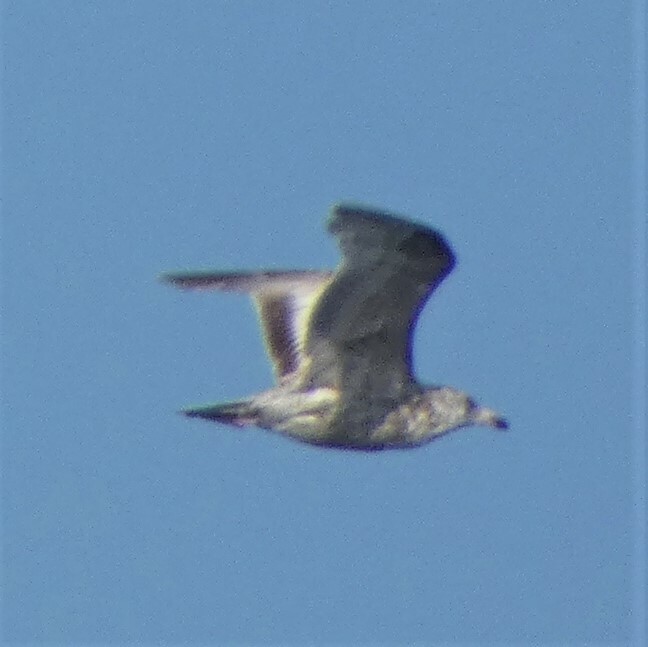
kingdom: Animalia
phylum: Chordata
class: Aves
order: Charadriiformes
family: Laridae
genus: Larus
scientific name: Larus argentatus
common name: Herring gull
